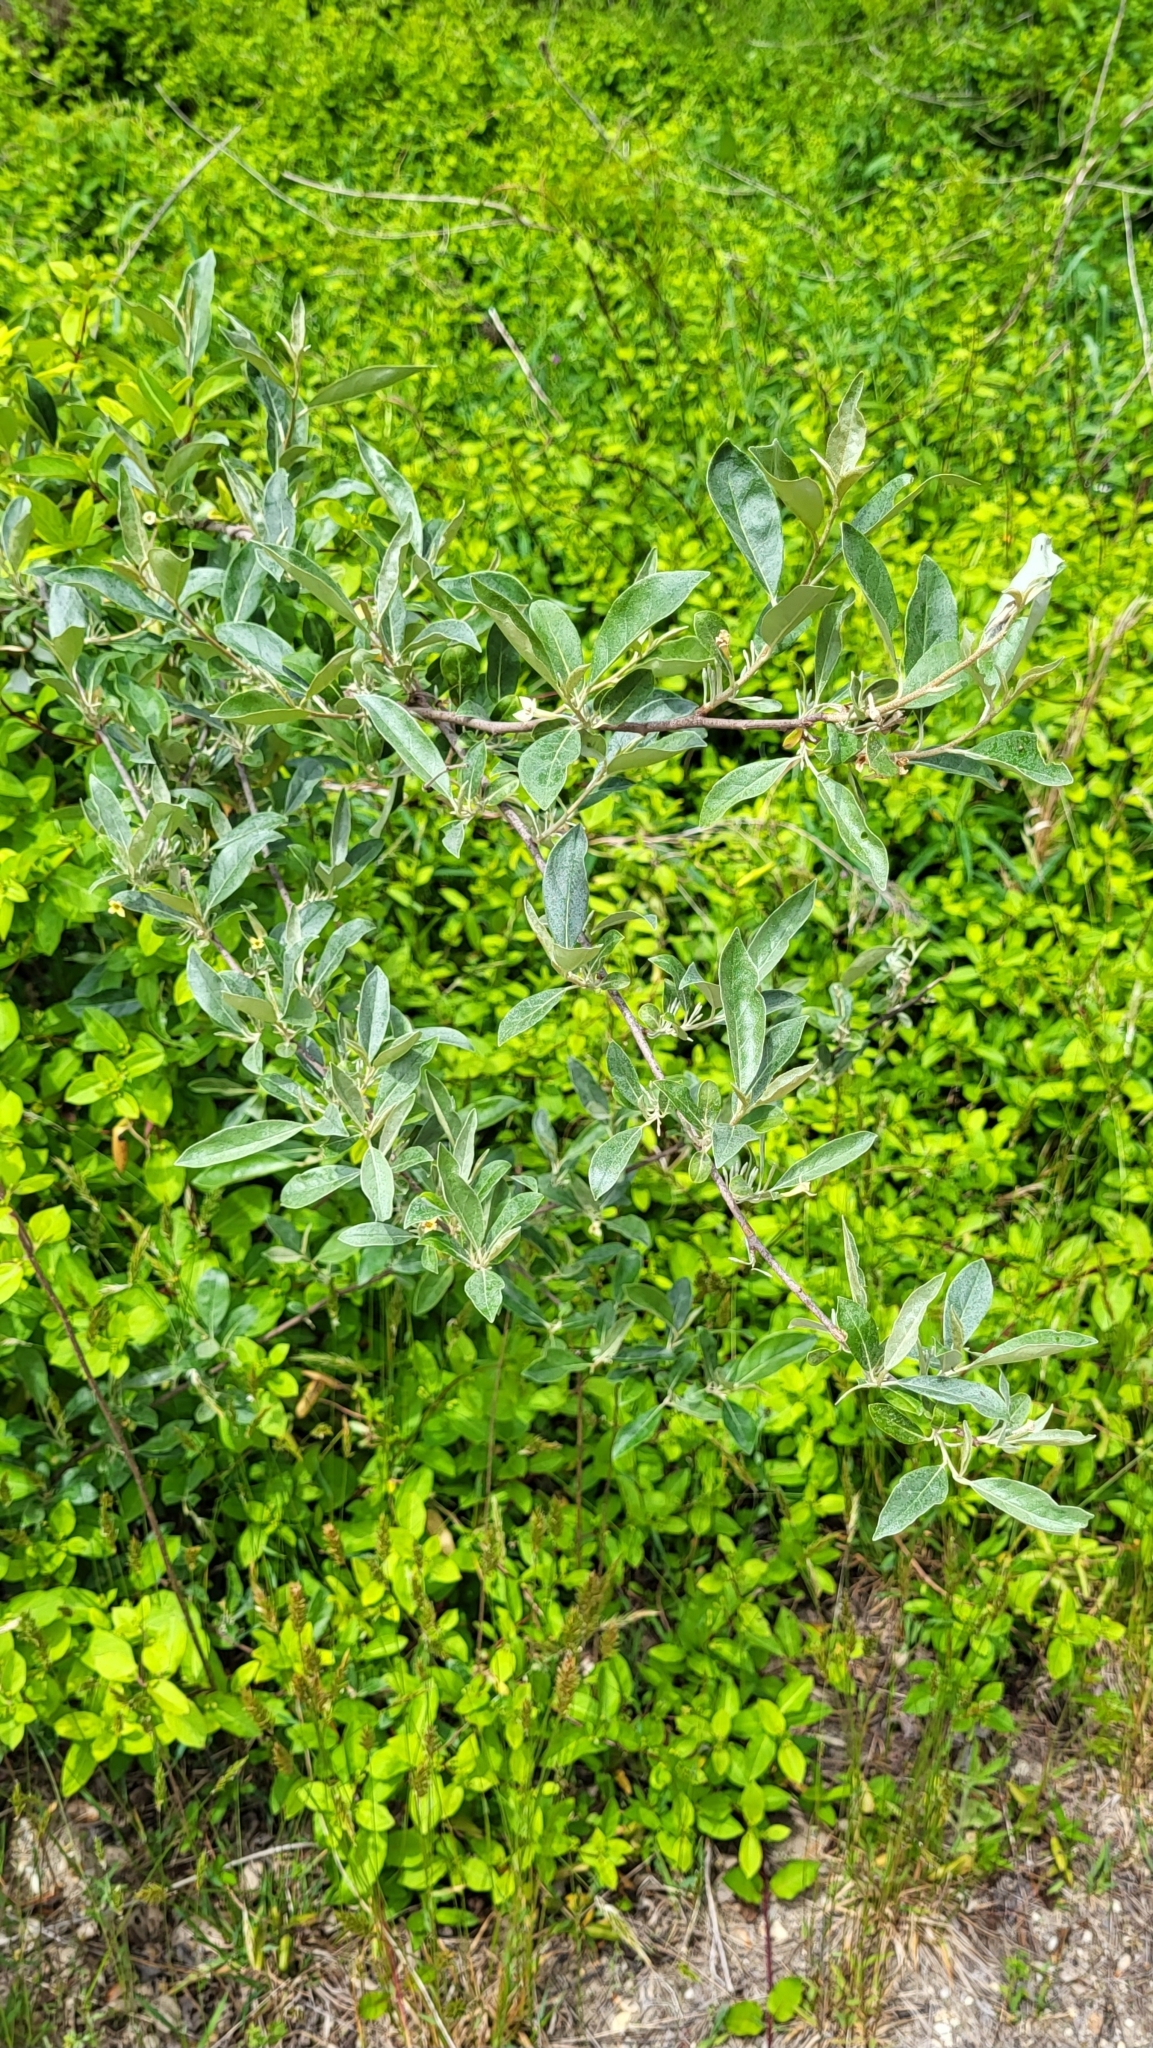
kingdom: Plantae
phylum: Tracheophyta
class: Magnoliopsida
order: Rosales
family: Elaeagnaceae
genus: Elaeagnus
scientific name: Elaeagnus umbellata
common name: Autumn olive
